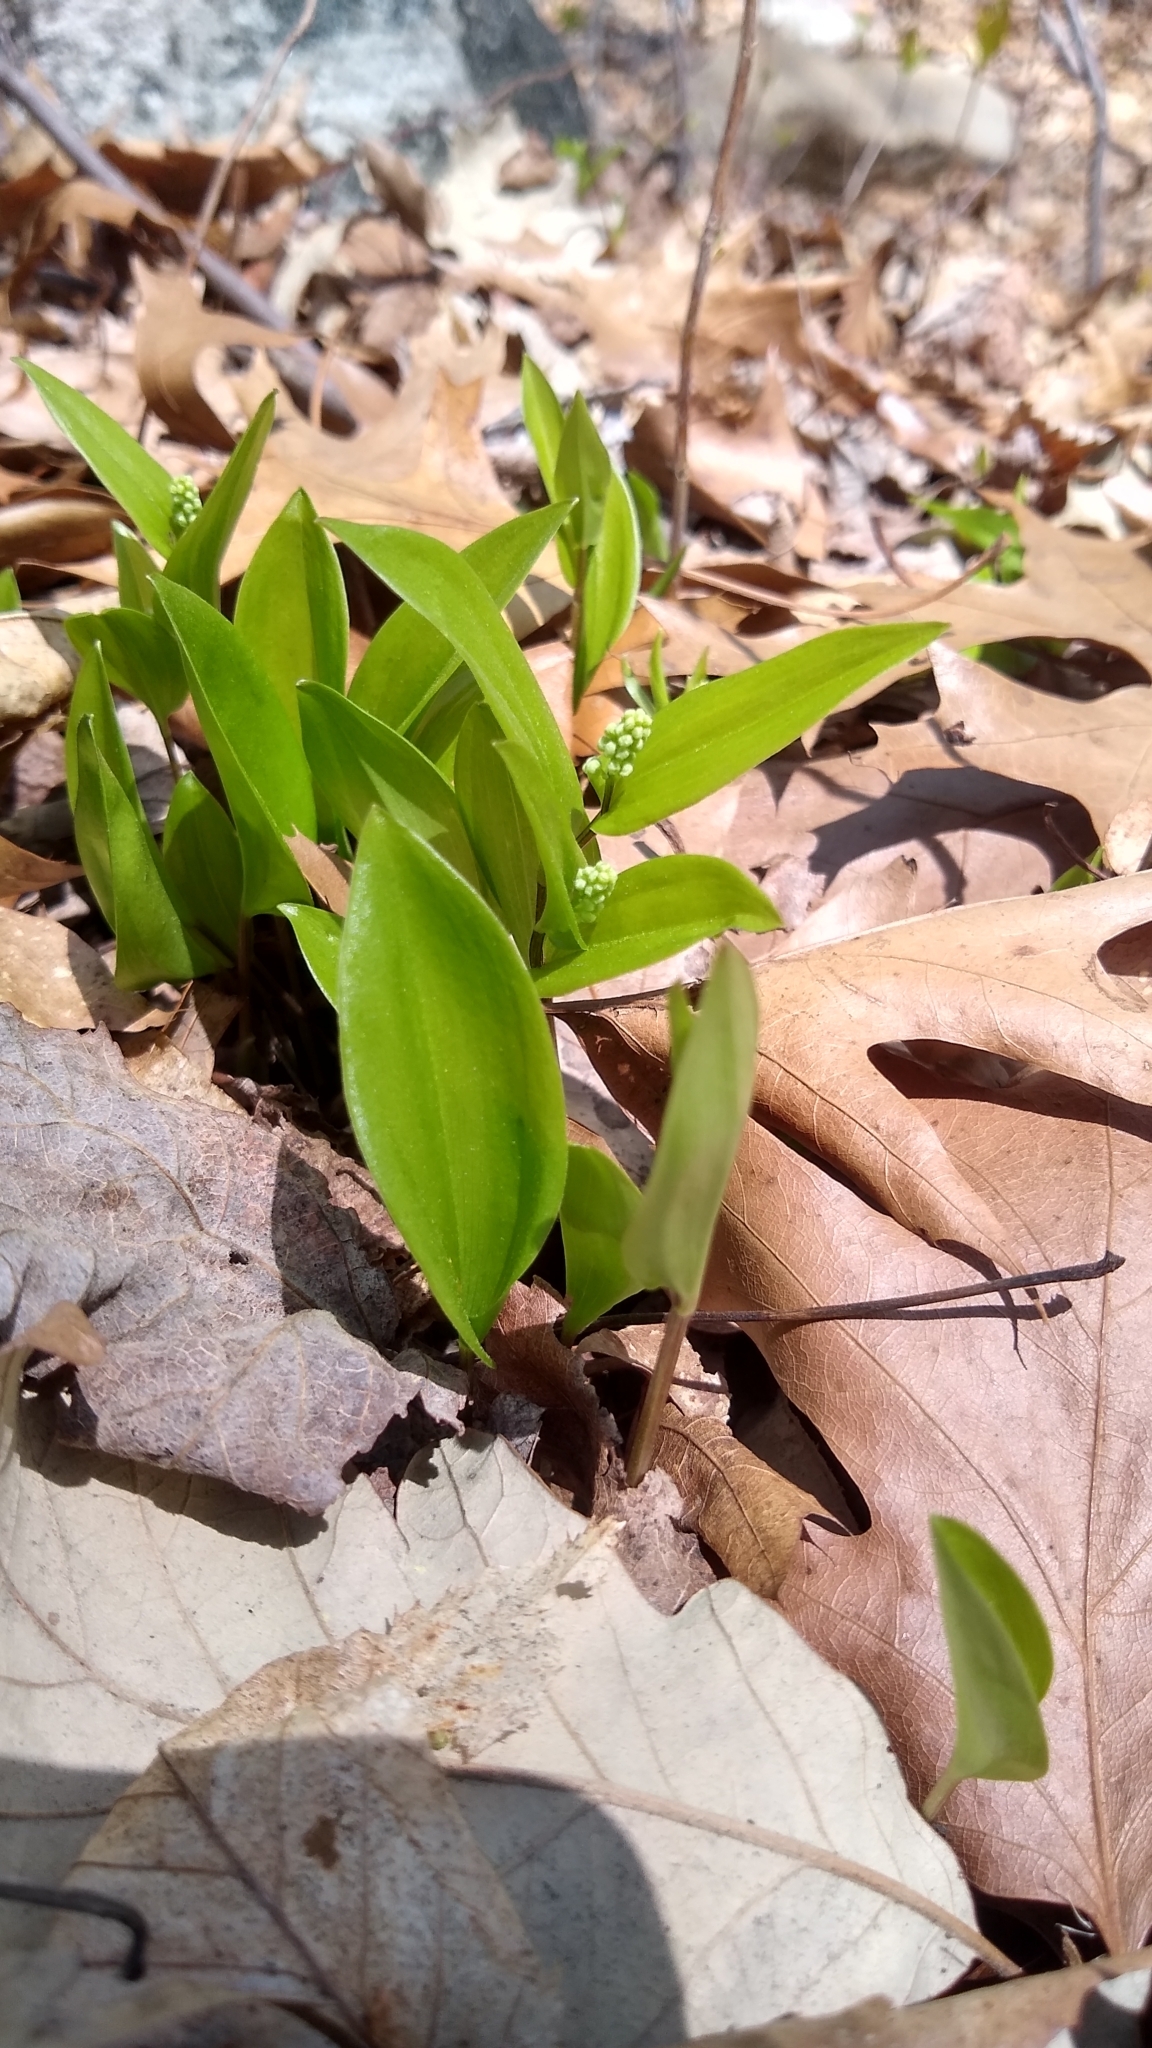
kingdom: Plantae
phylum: Tracheophyta
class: Liliopsida
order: Asparagales
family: Asparagaceae
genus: Maianthemum
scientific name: Maianthemum canadense
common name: False lily-of-the-valley
